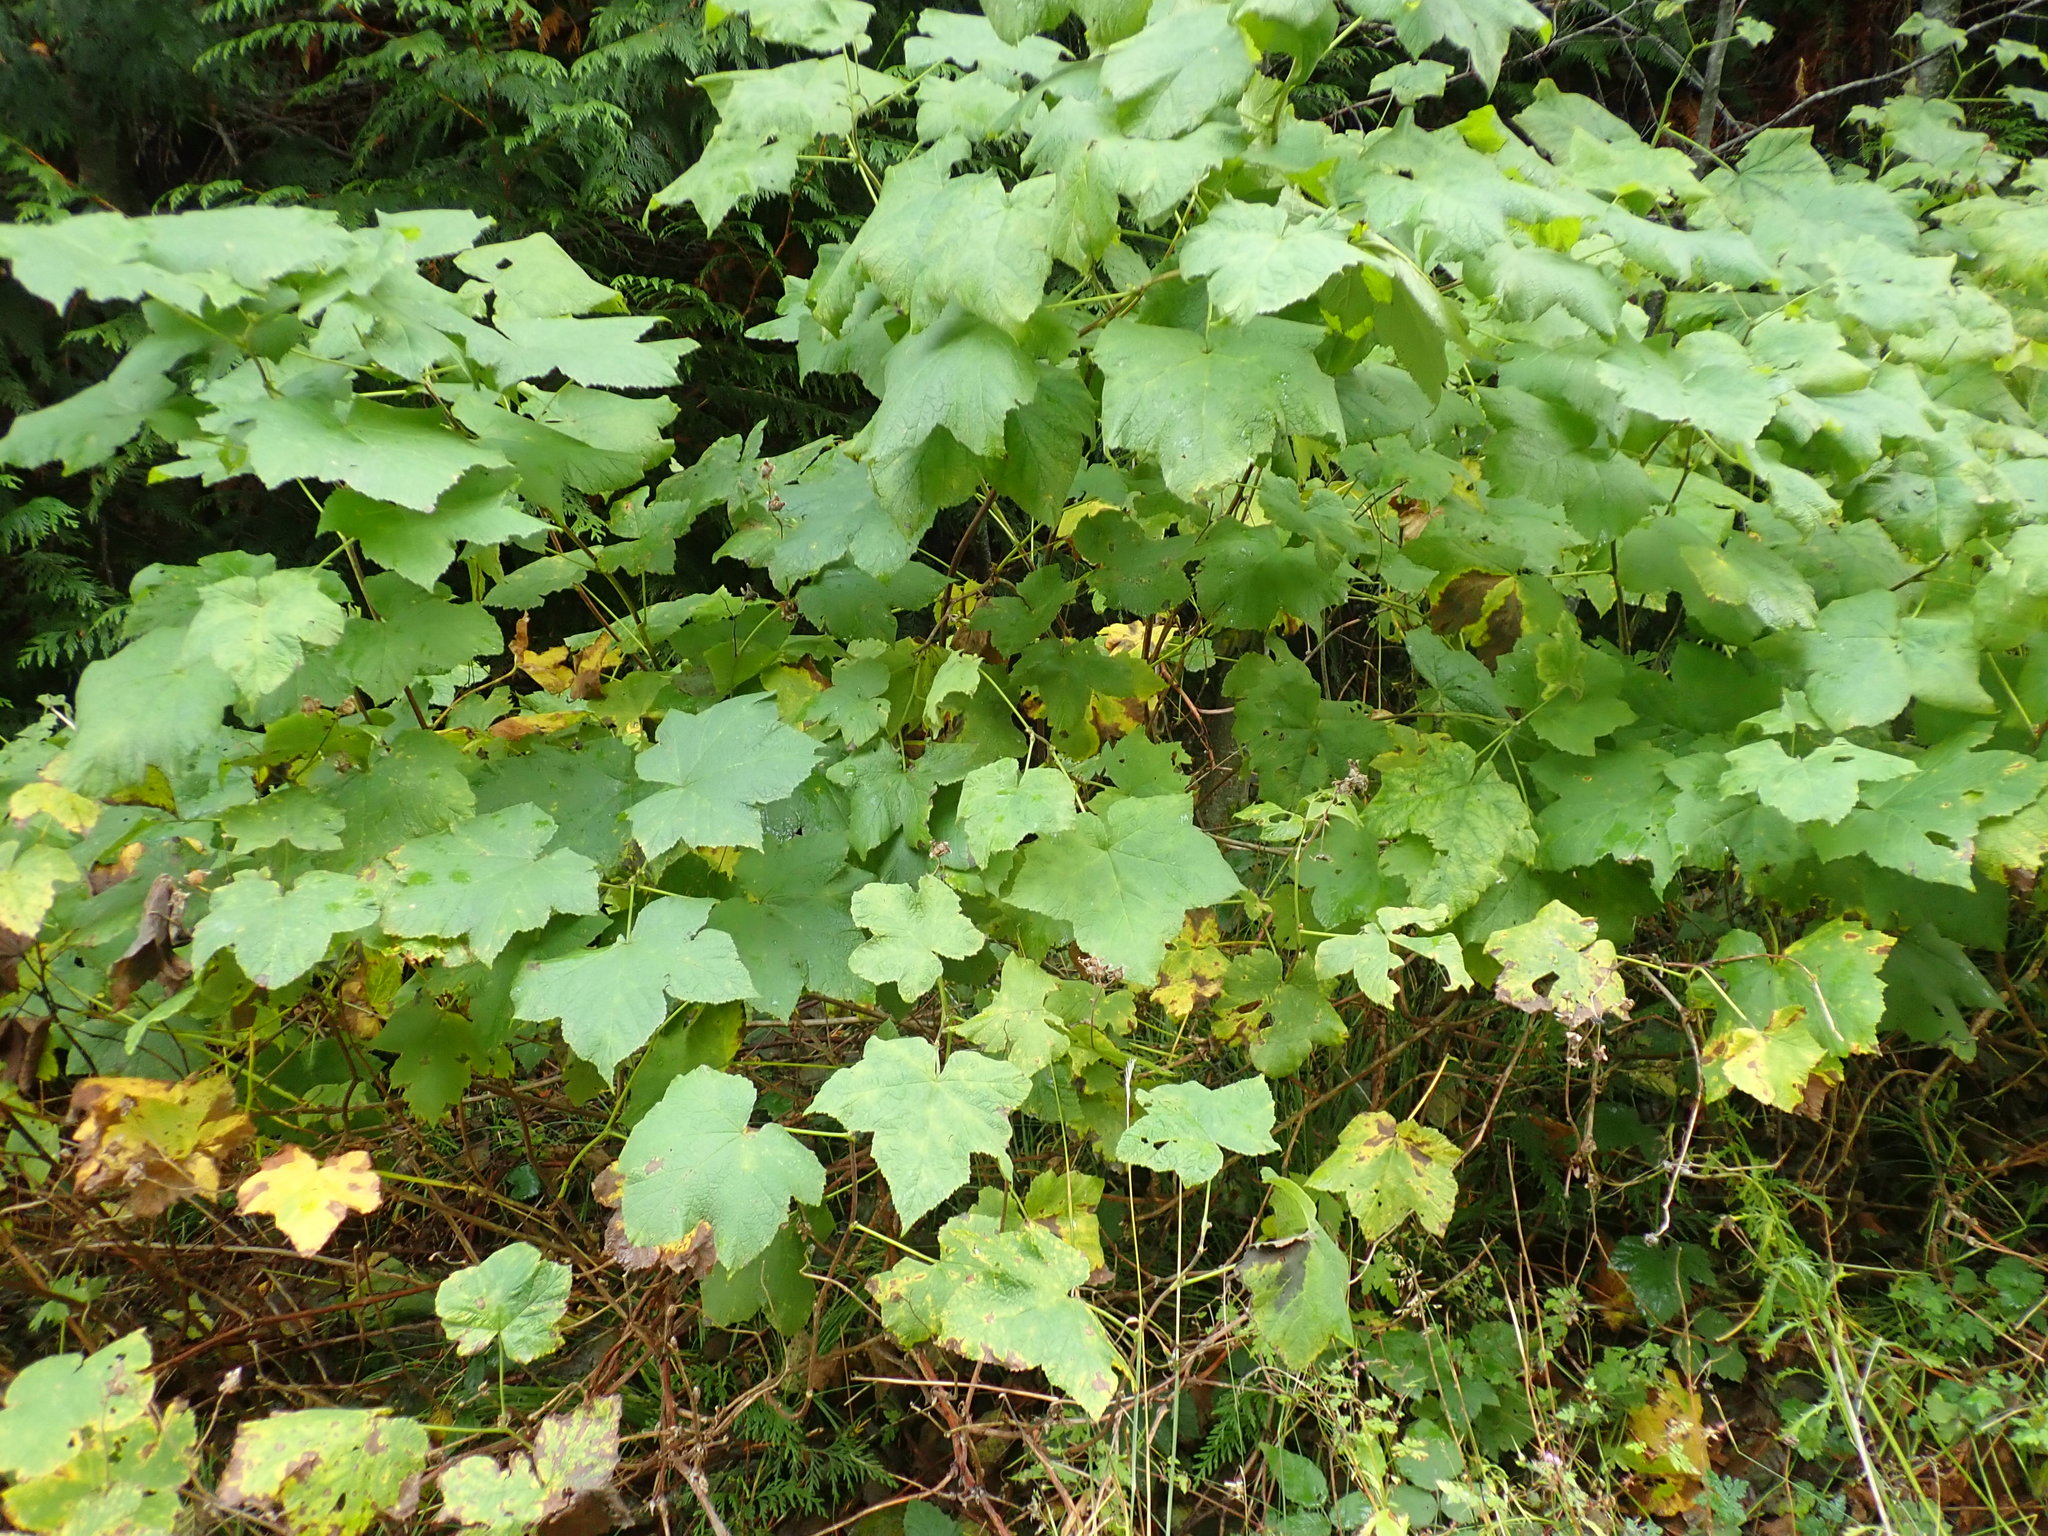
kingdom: Plantae
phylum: Tracheophyta
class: Magnoliopsida
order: Rosales
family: Rosaceae
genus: Rubus
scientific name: Rubus parviflorus
